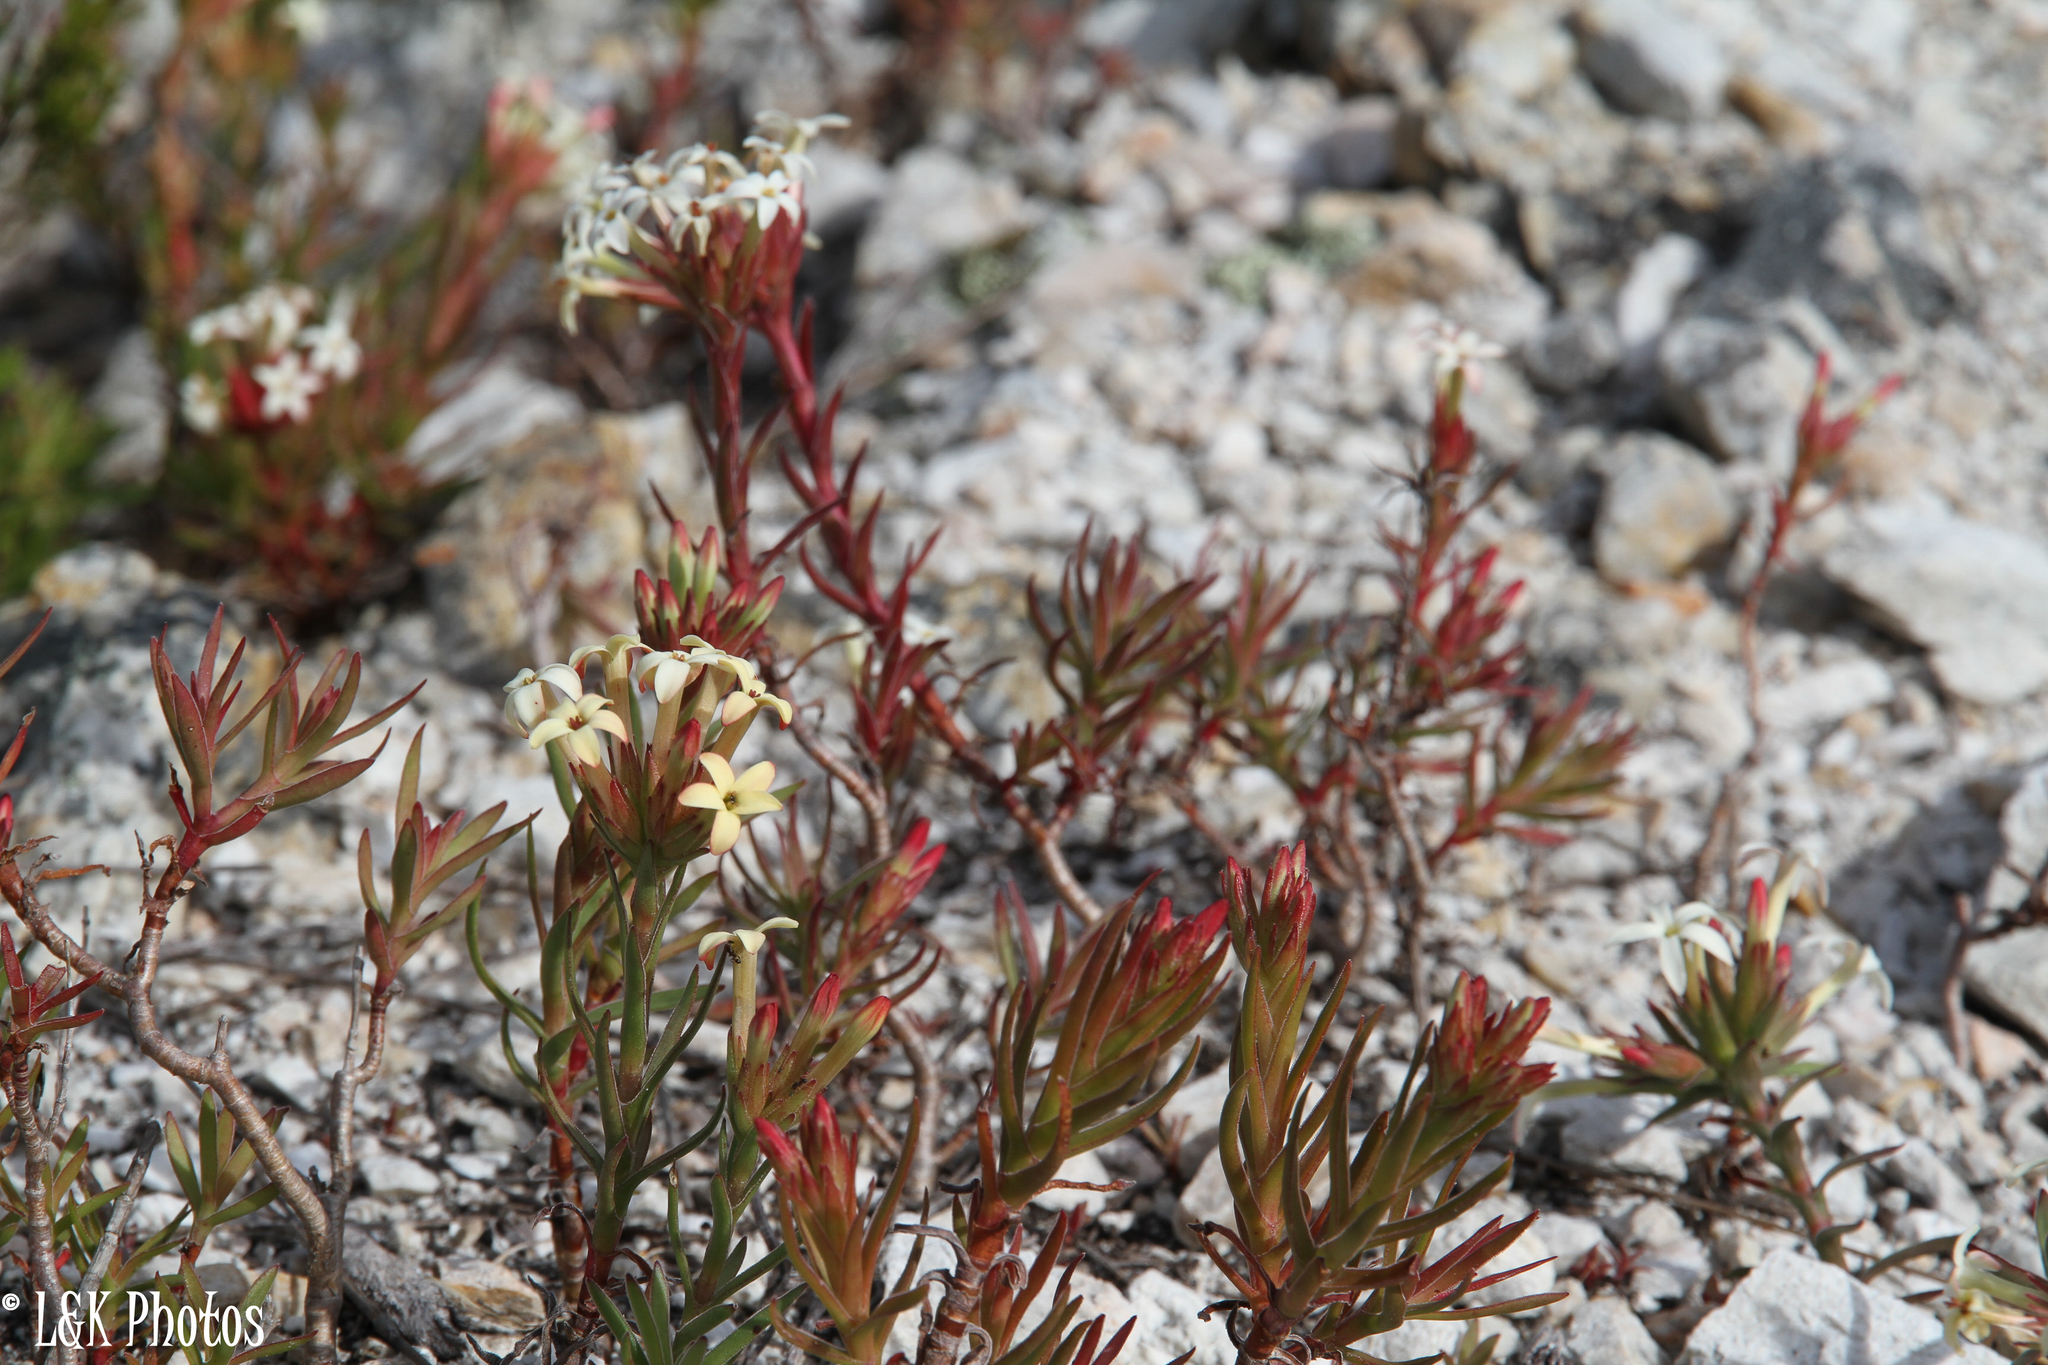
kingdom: Plantae
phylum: Tracheophyta
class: Magnoliopsida
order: Saxifragales
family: Crassulaceae
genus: Crassula
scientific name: Crassula fascicularis
